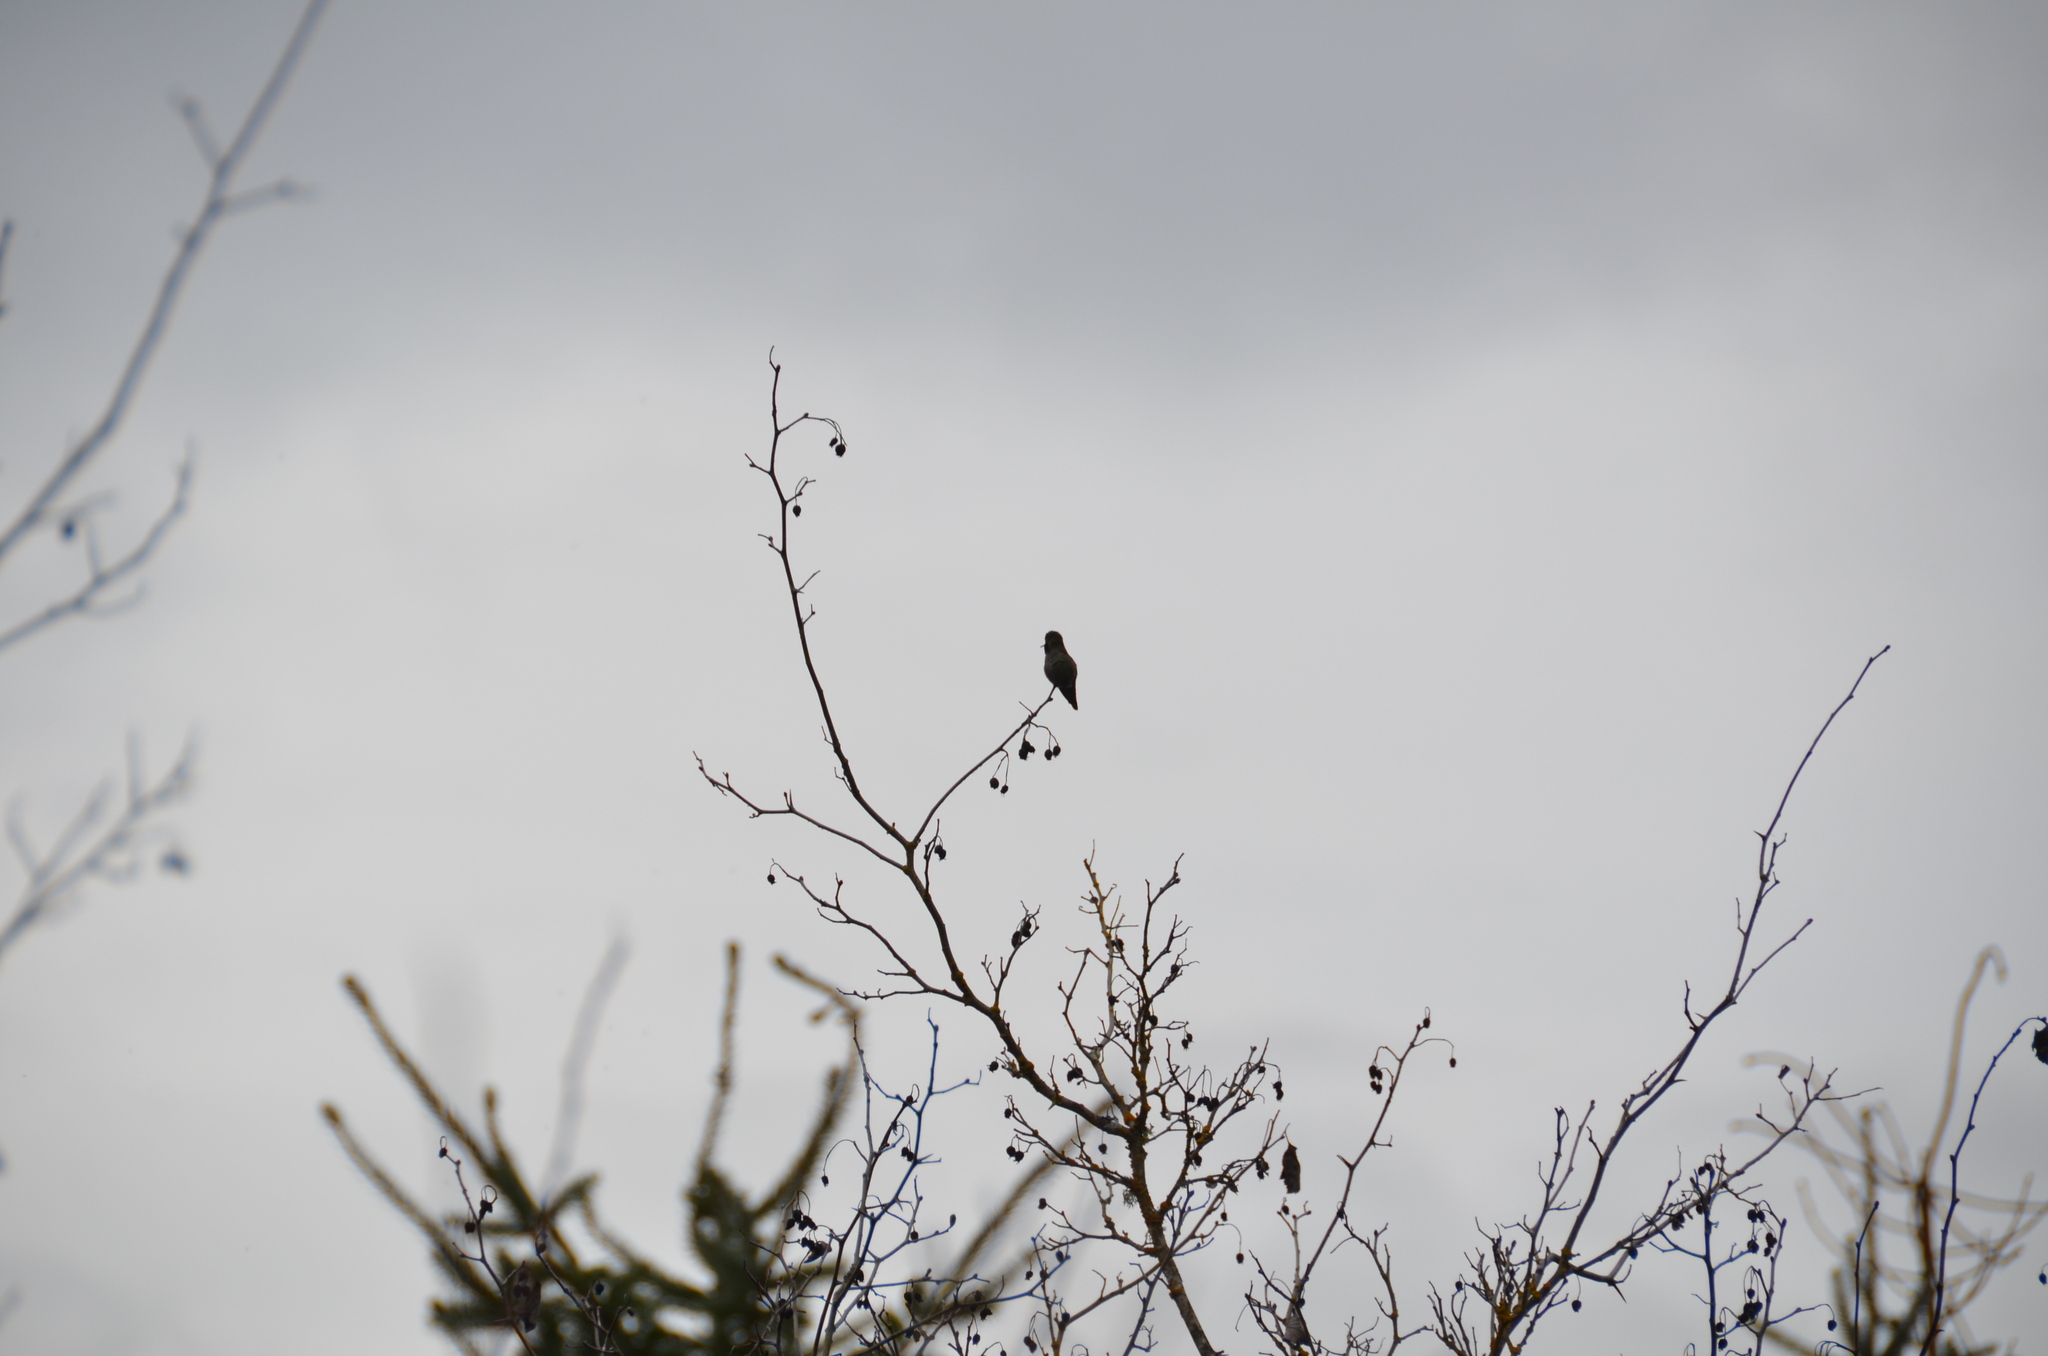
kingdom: Animalia
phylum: Chordata
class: Aves
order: Apodiformes
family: Trochilidae
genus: Calypte
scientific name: Calypte anna
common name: Anna's hummingbird
